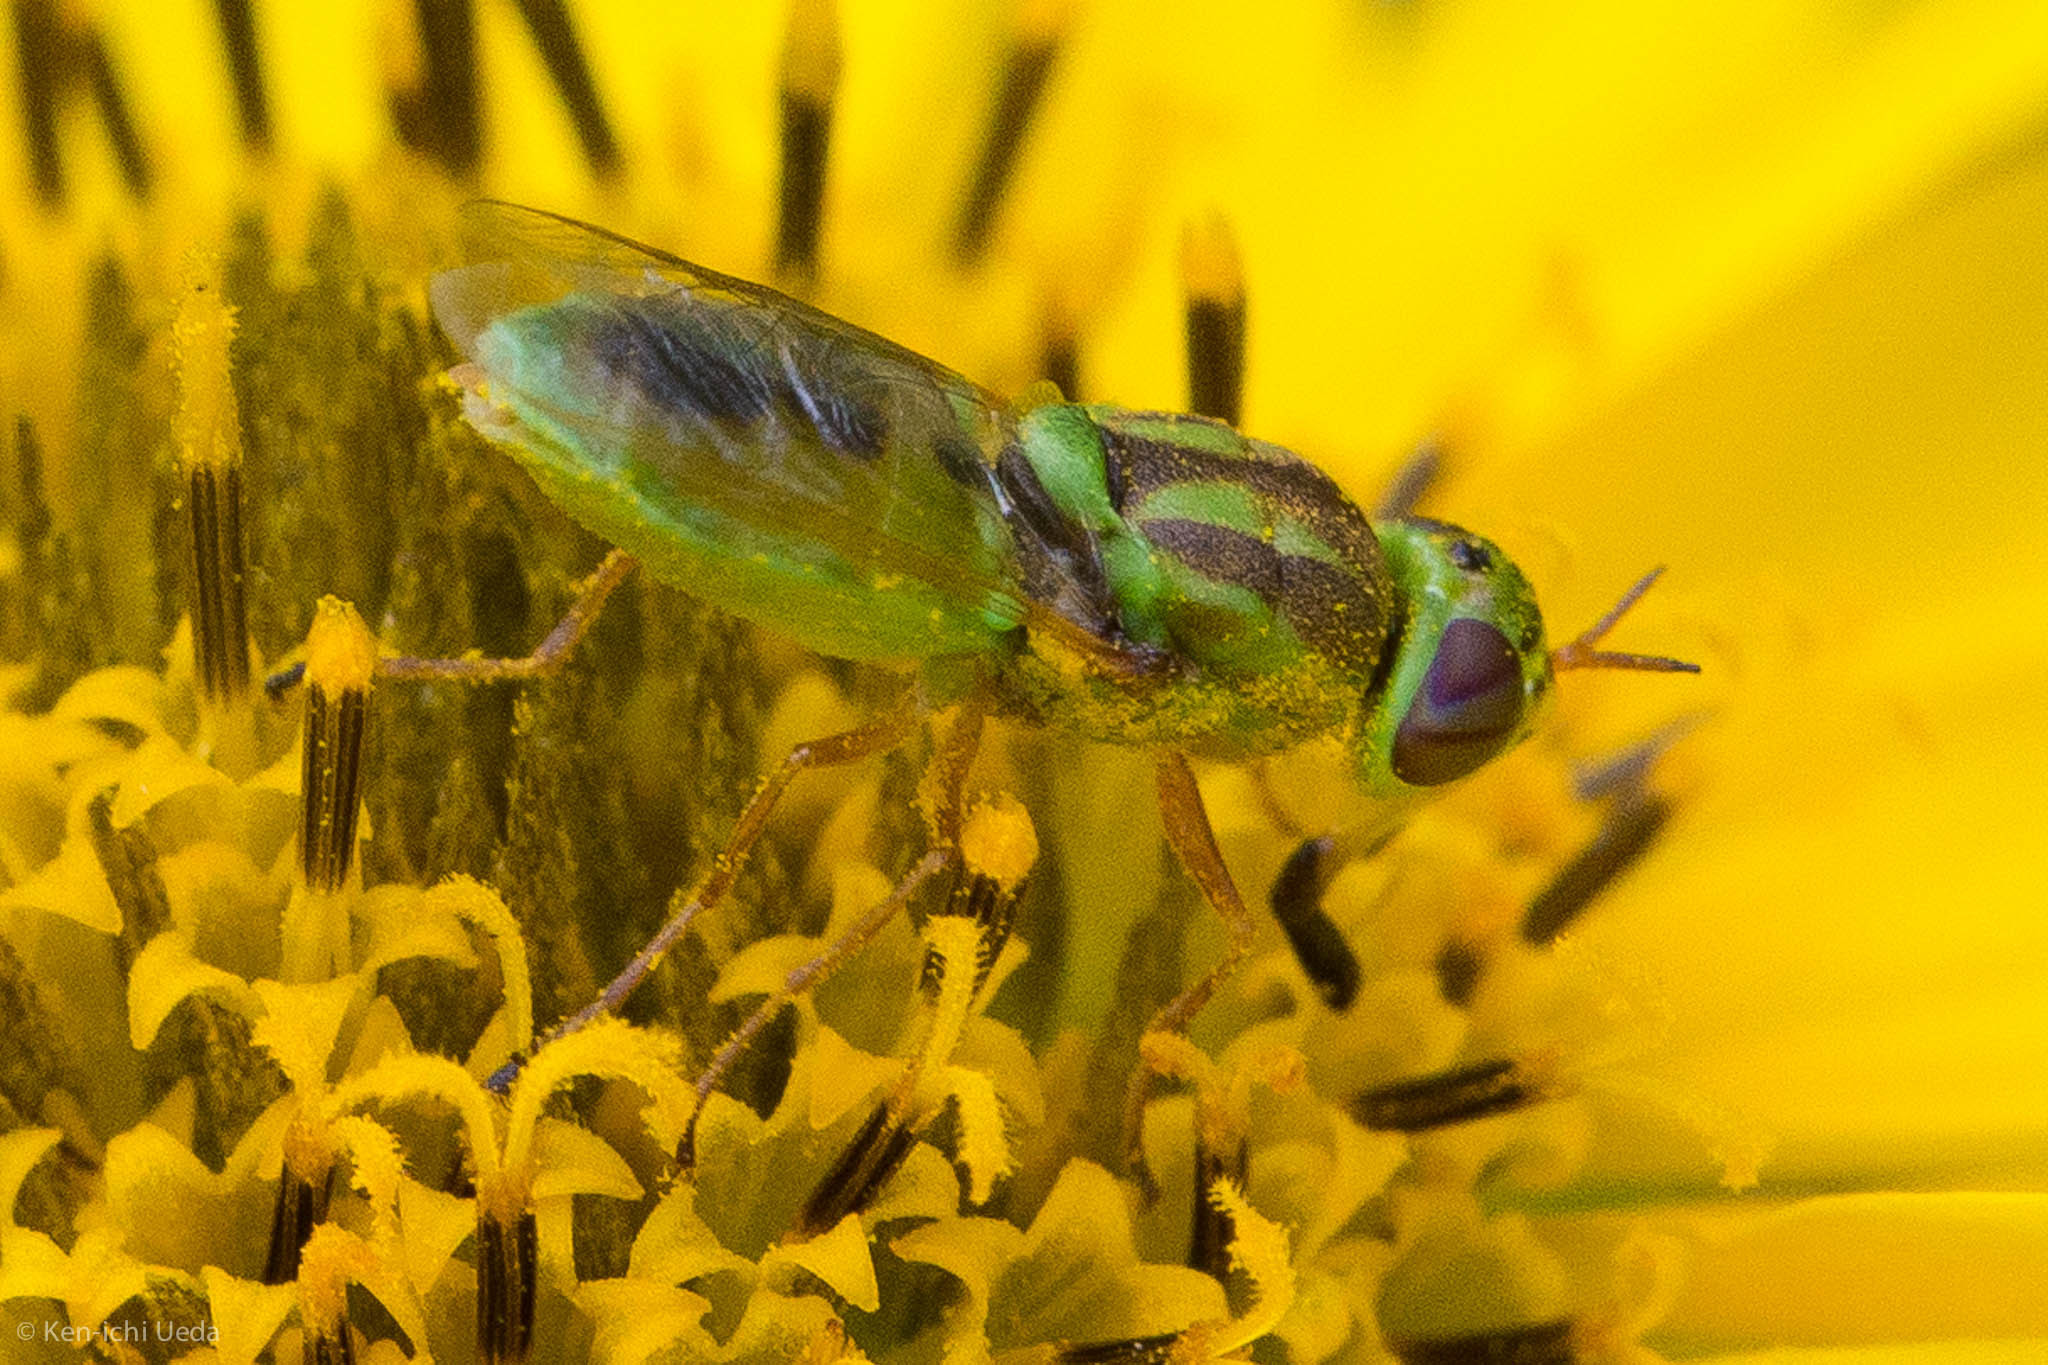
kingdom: Animalia
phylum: Arthropoda
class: Insecta
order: Diptera
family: Stratiomyidae
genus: Hedriodiscus
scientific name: Hedriodiscus trivittatus
